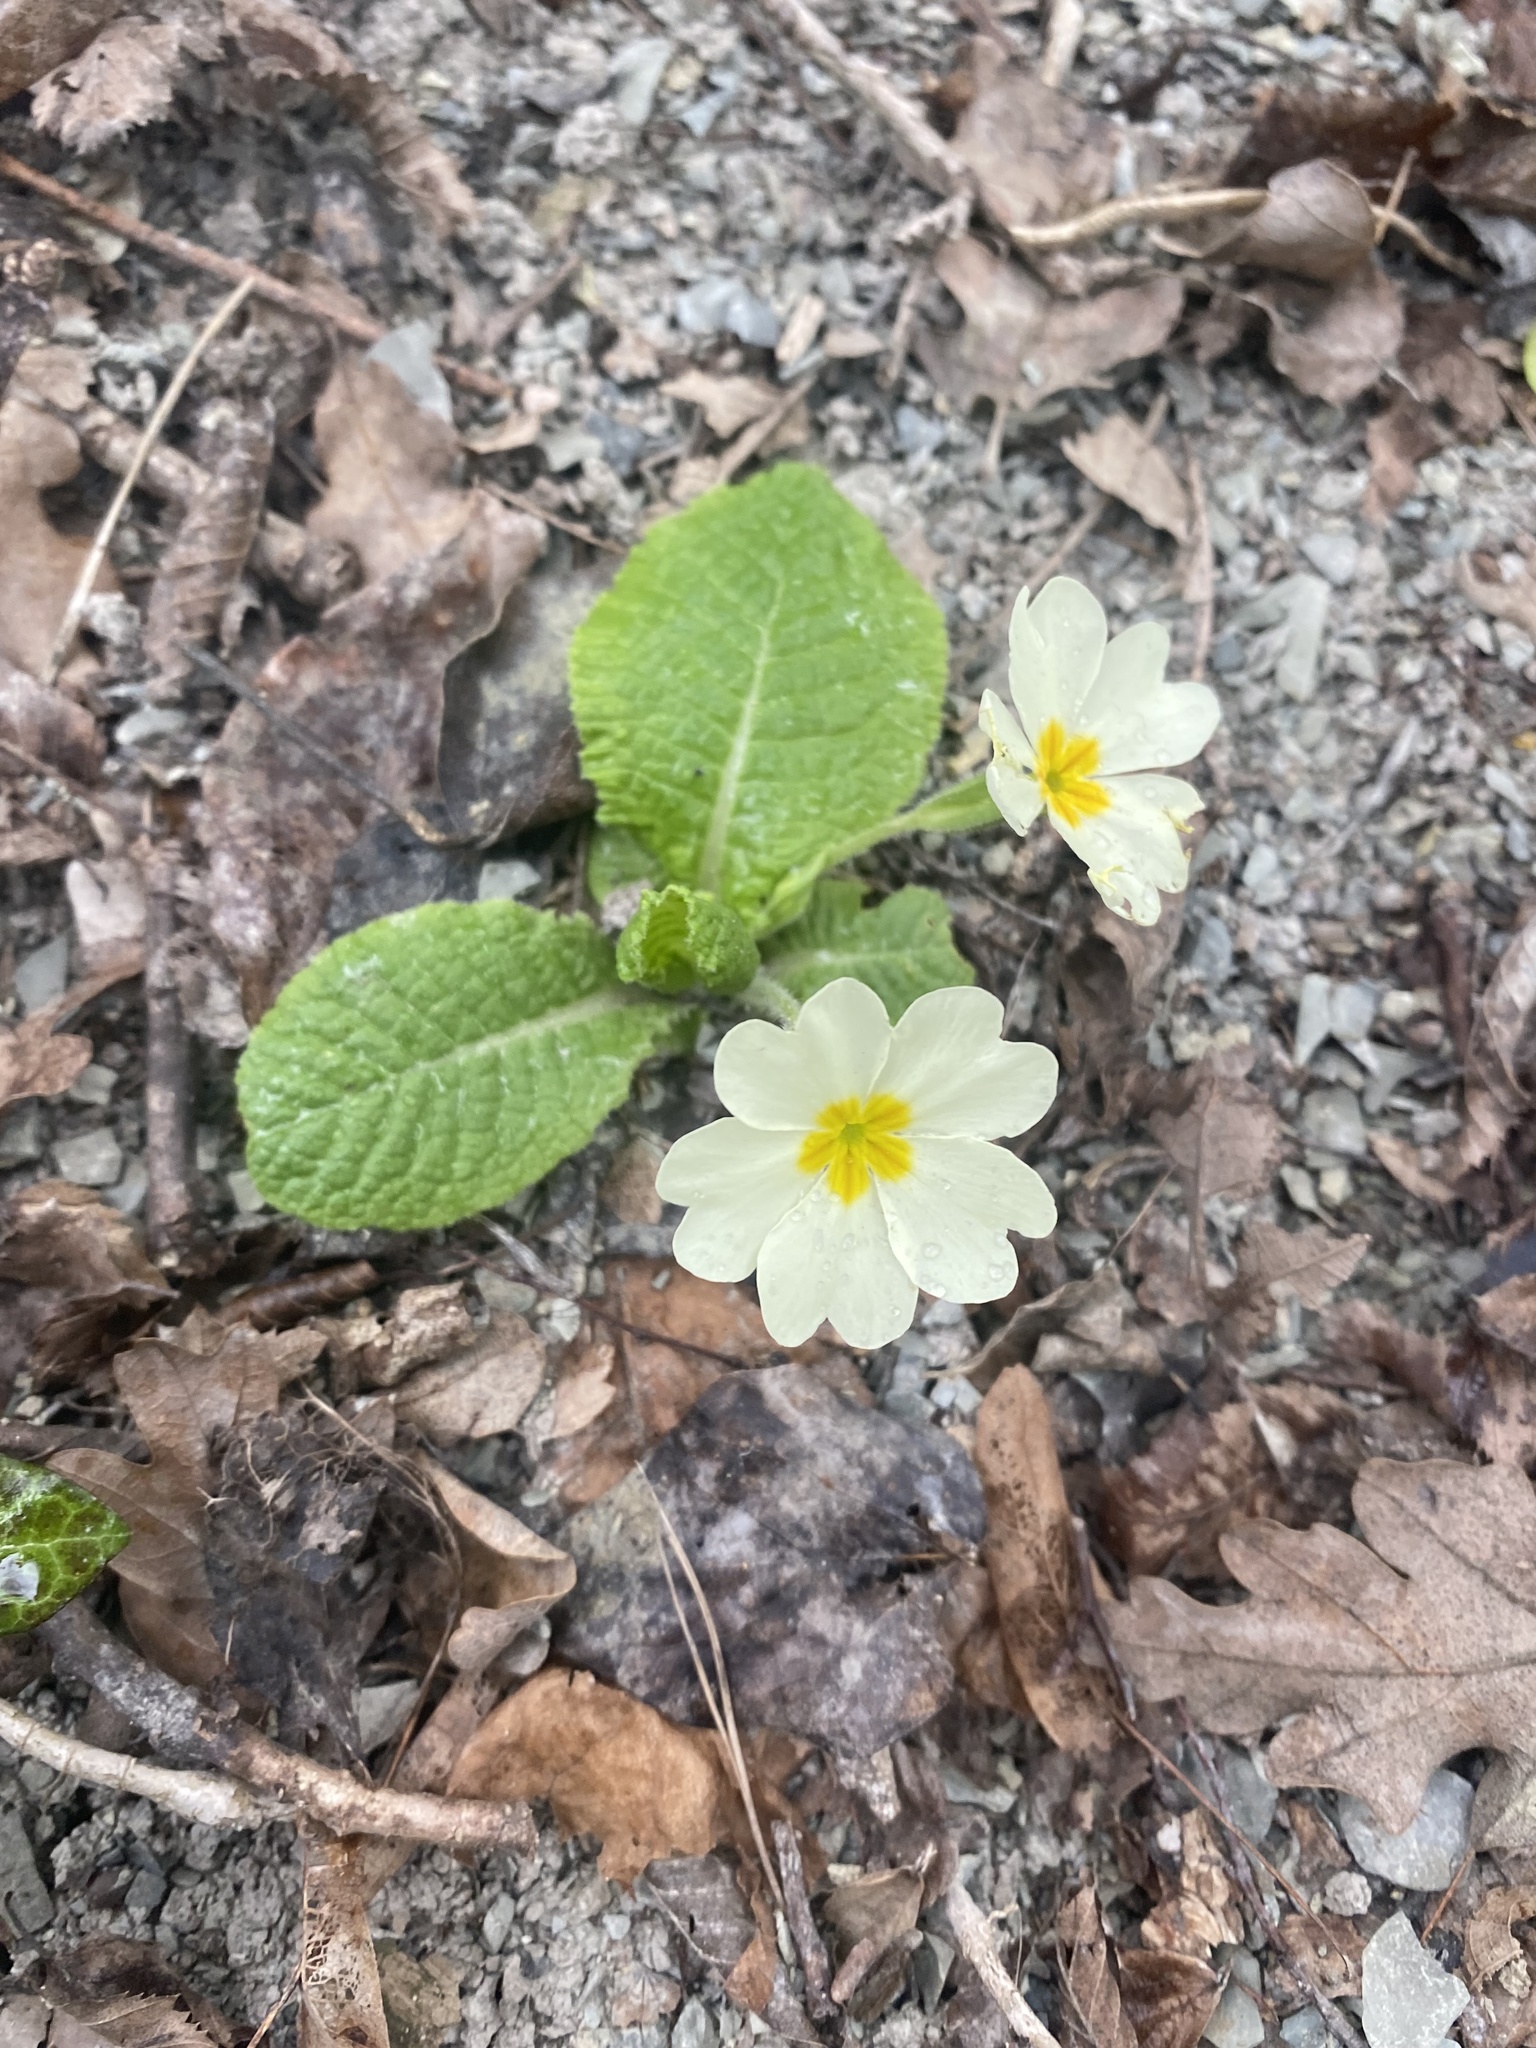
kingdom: Plantae
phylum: Tracheophyta
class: Magnoliopsida
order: Ericales
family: Primulaceae
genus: Primula
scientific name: Primula vulgaris
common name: Primrose
